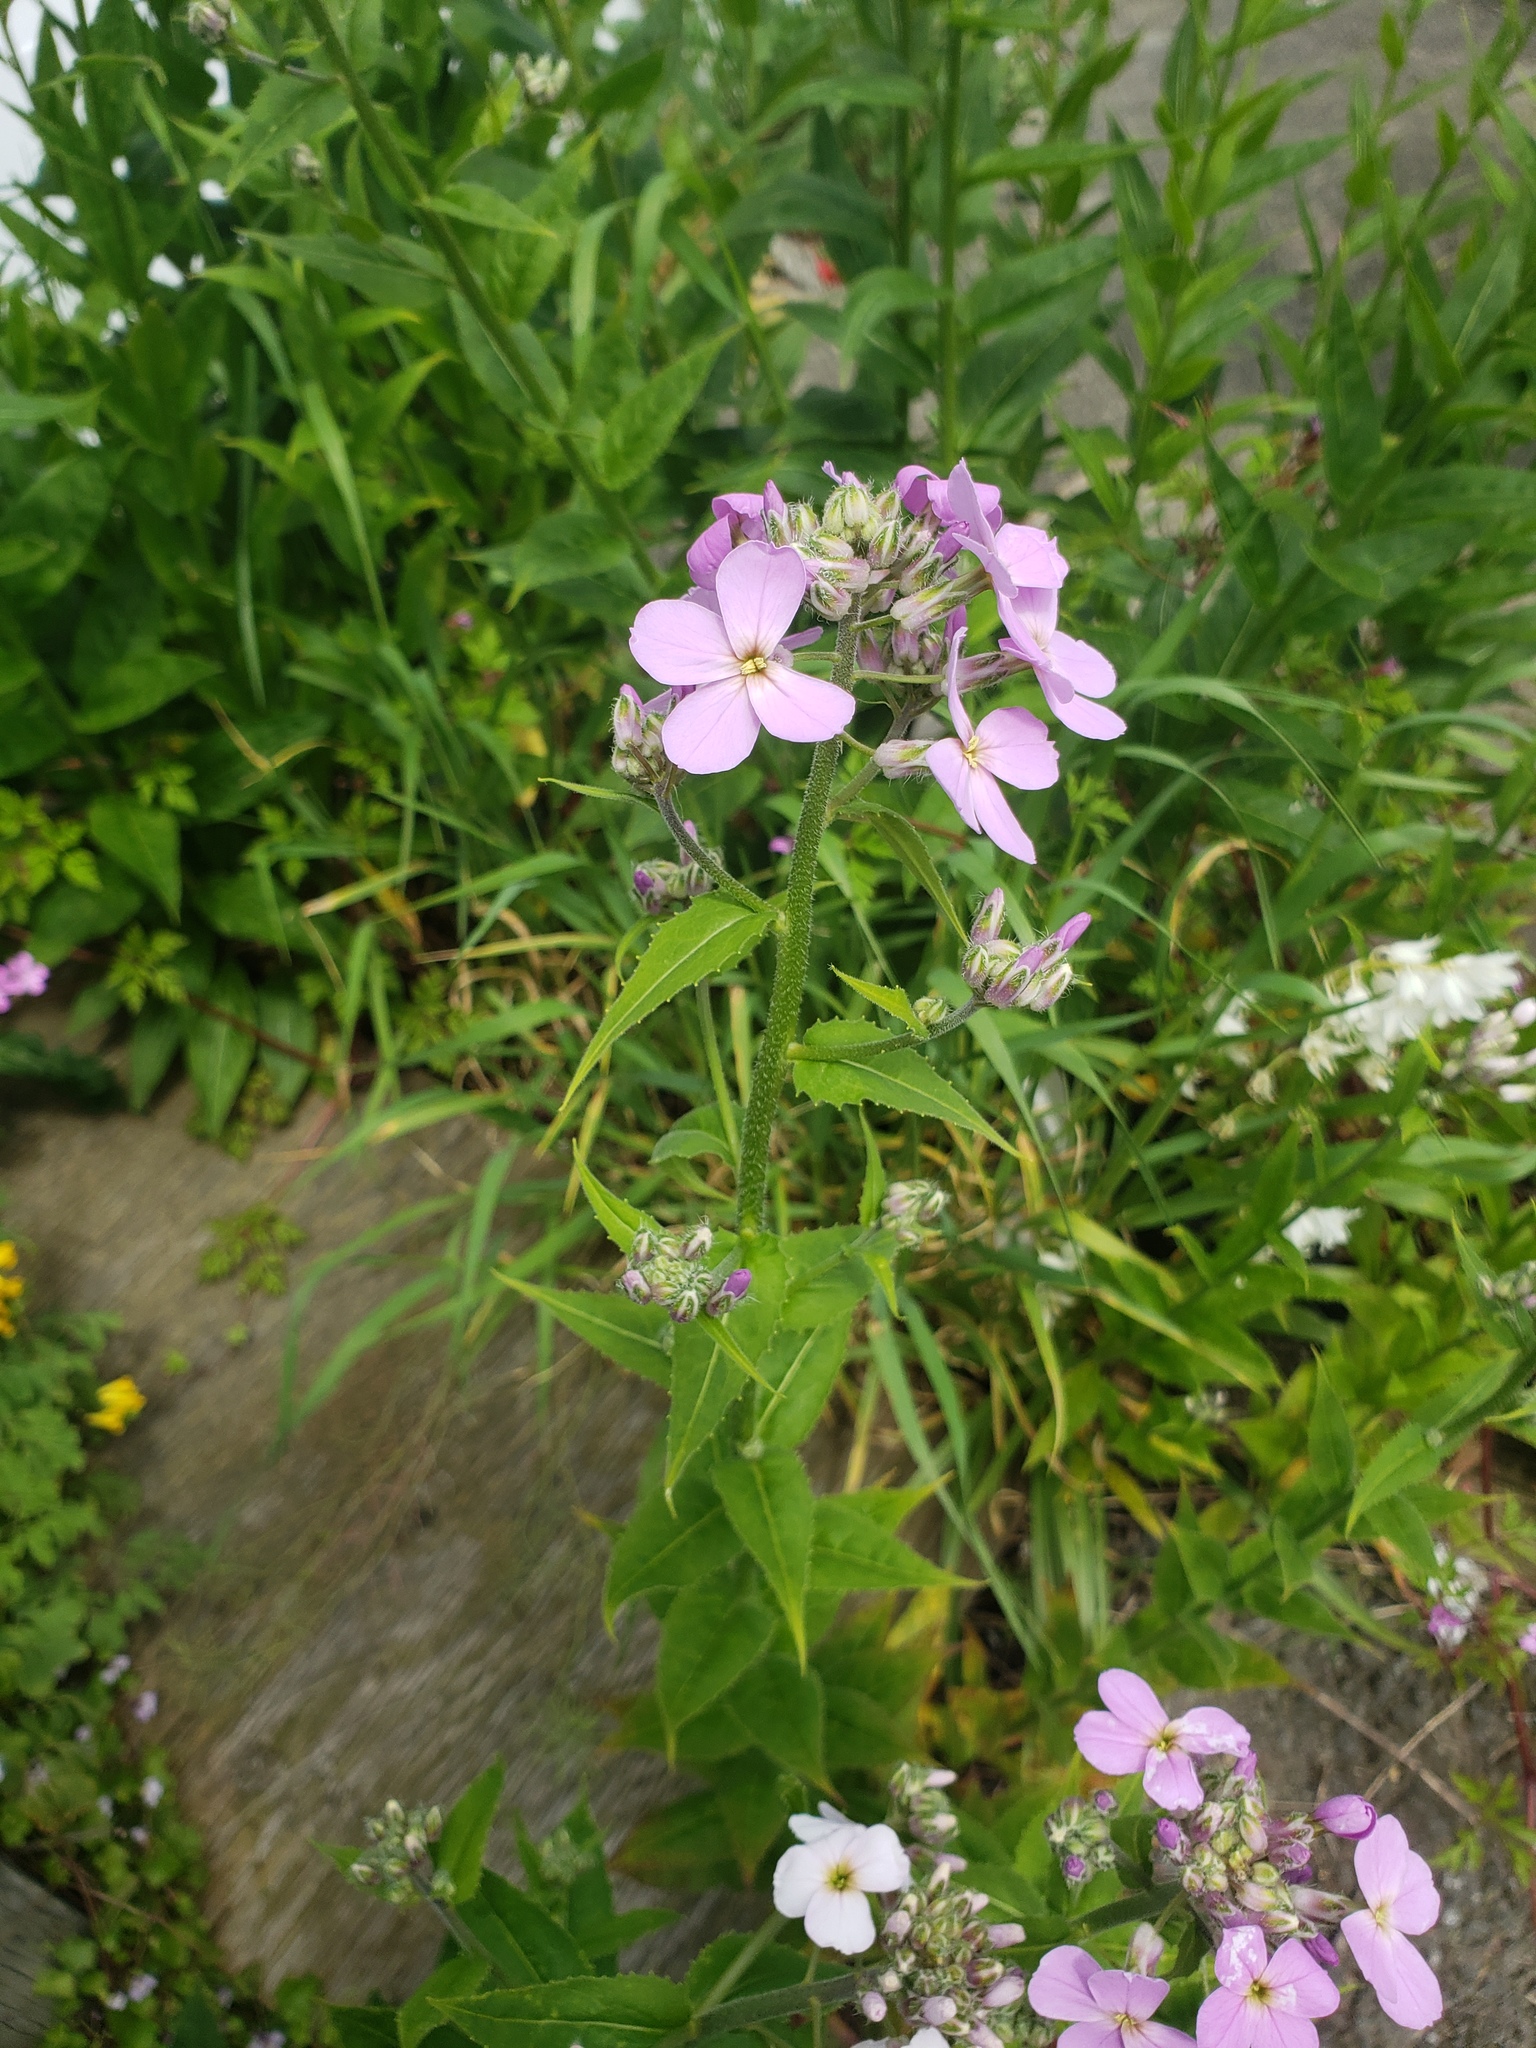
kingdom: Plantae
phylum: Tracheophyta
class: Magnoliopsida
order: Brassicales
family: Brassicaceae
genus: Hesperis
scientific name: Hesperis matronalis
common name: Dame's-violet
